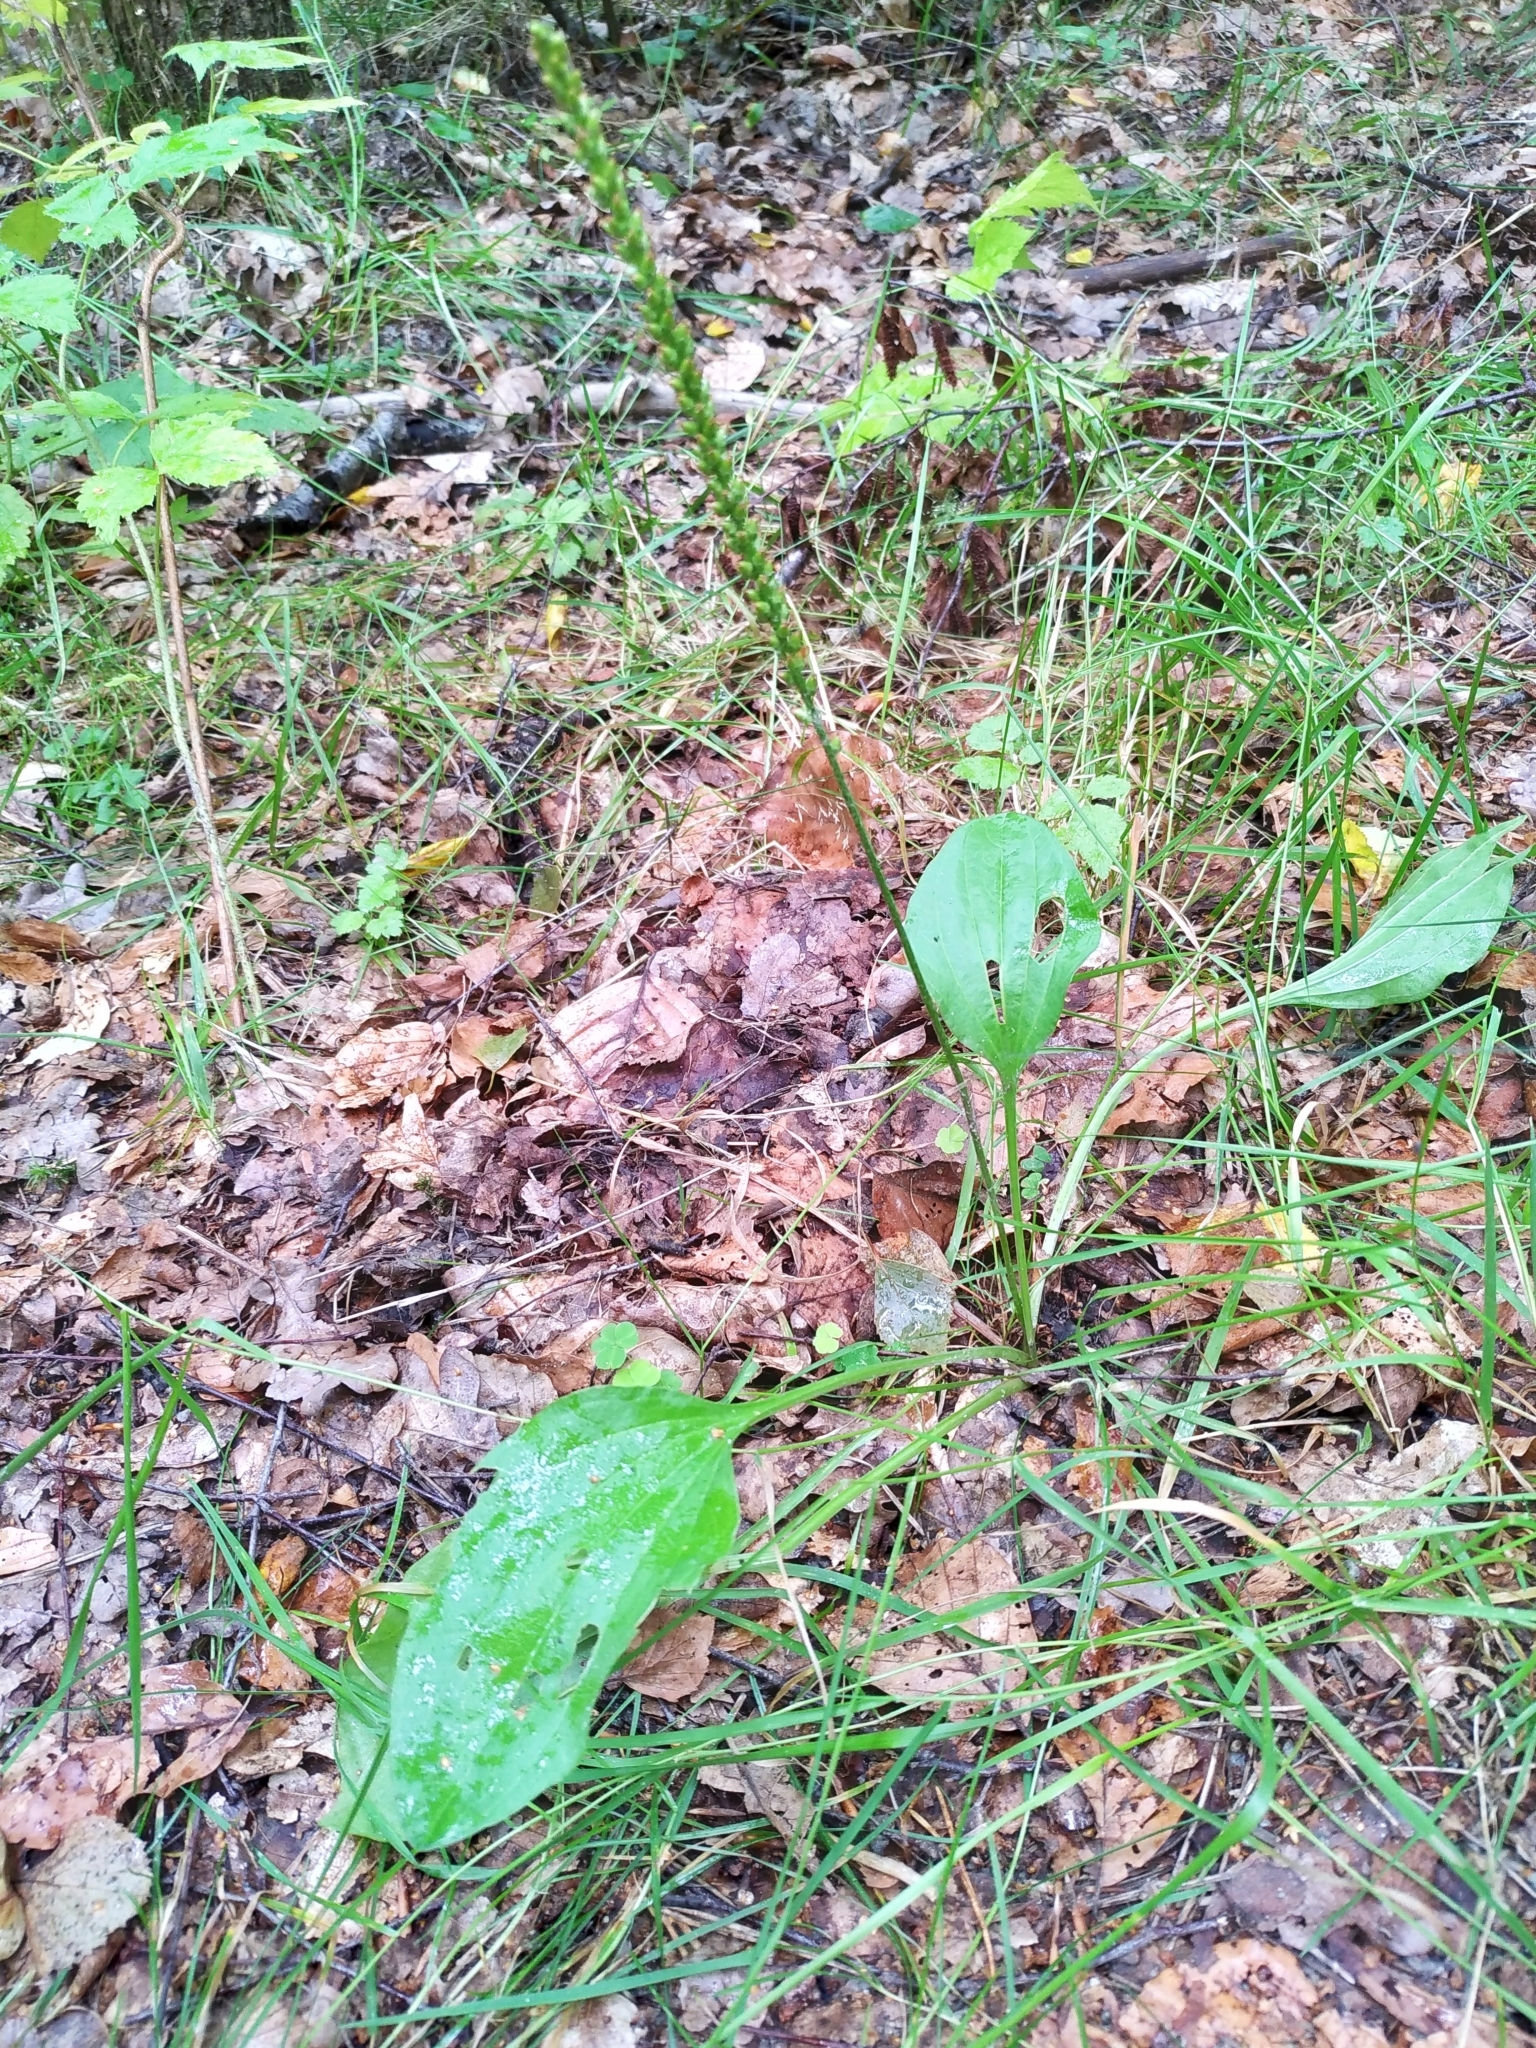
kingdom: Plantae
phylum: Tracheophyta
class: Magnoliopsida
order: Lamiales
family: Plantaginaceae
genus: Plantago
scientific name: Plantago major
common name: Common plantain
